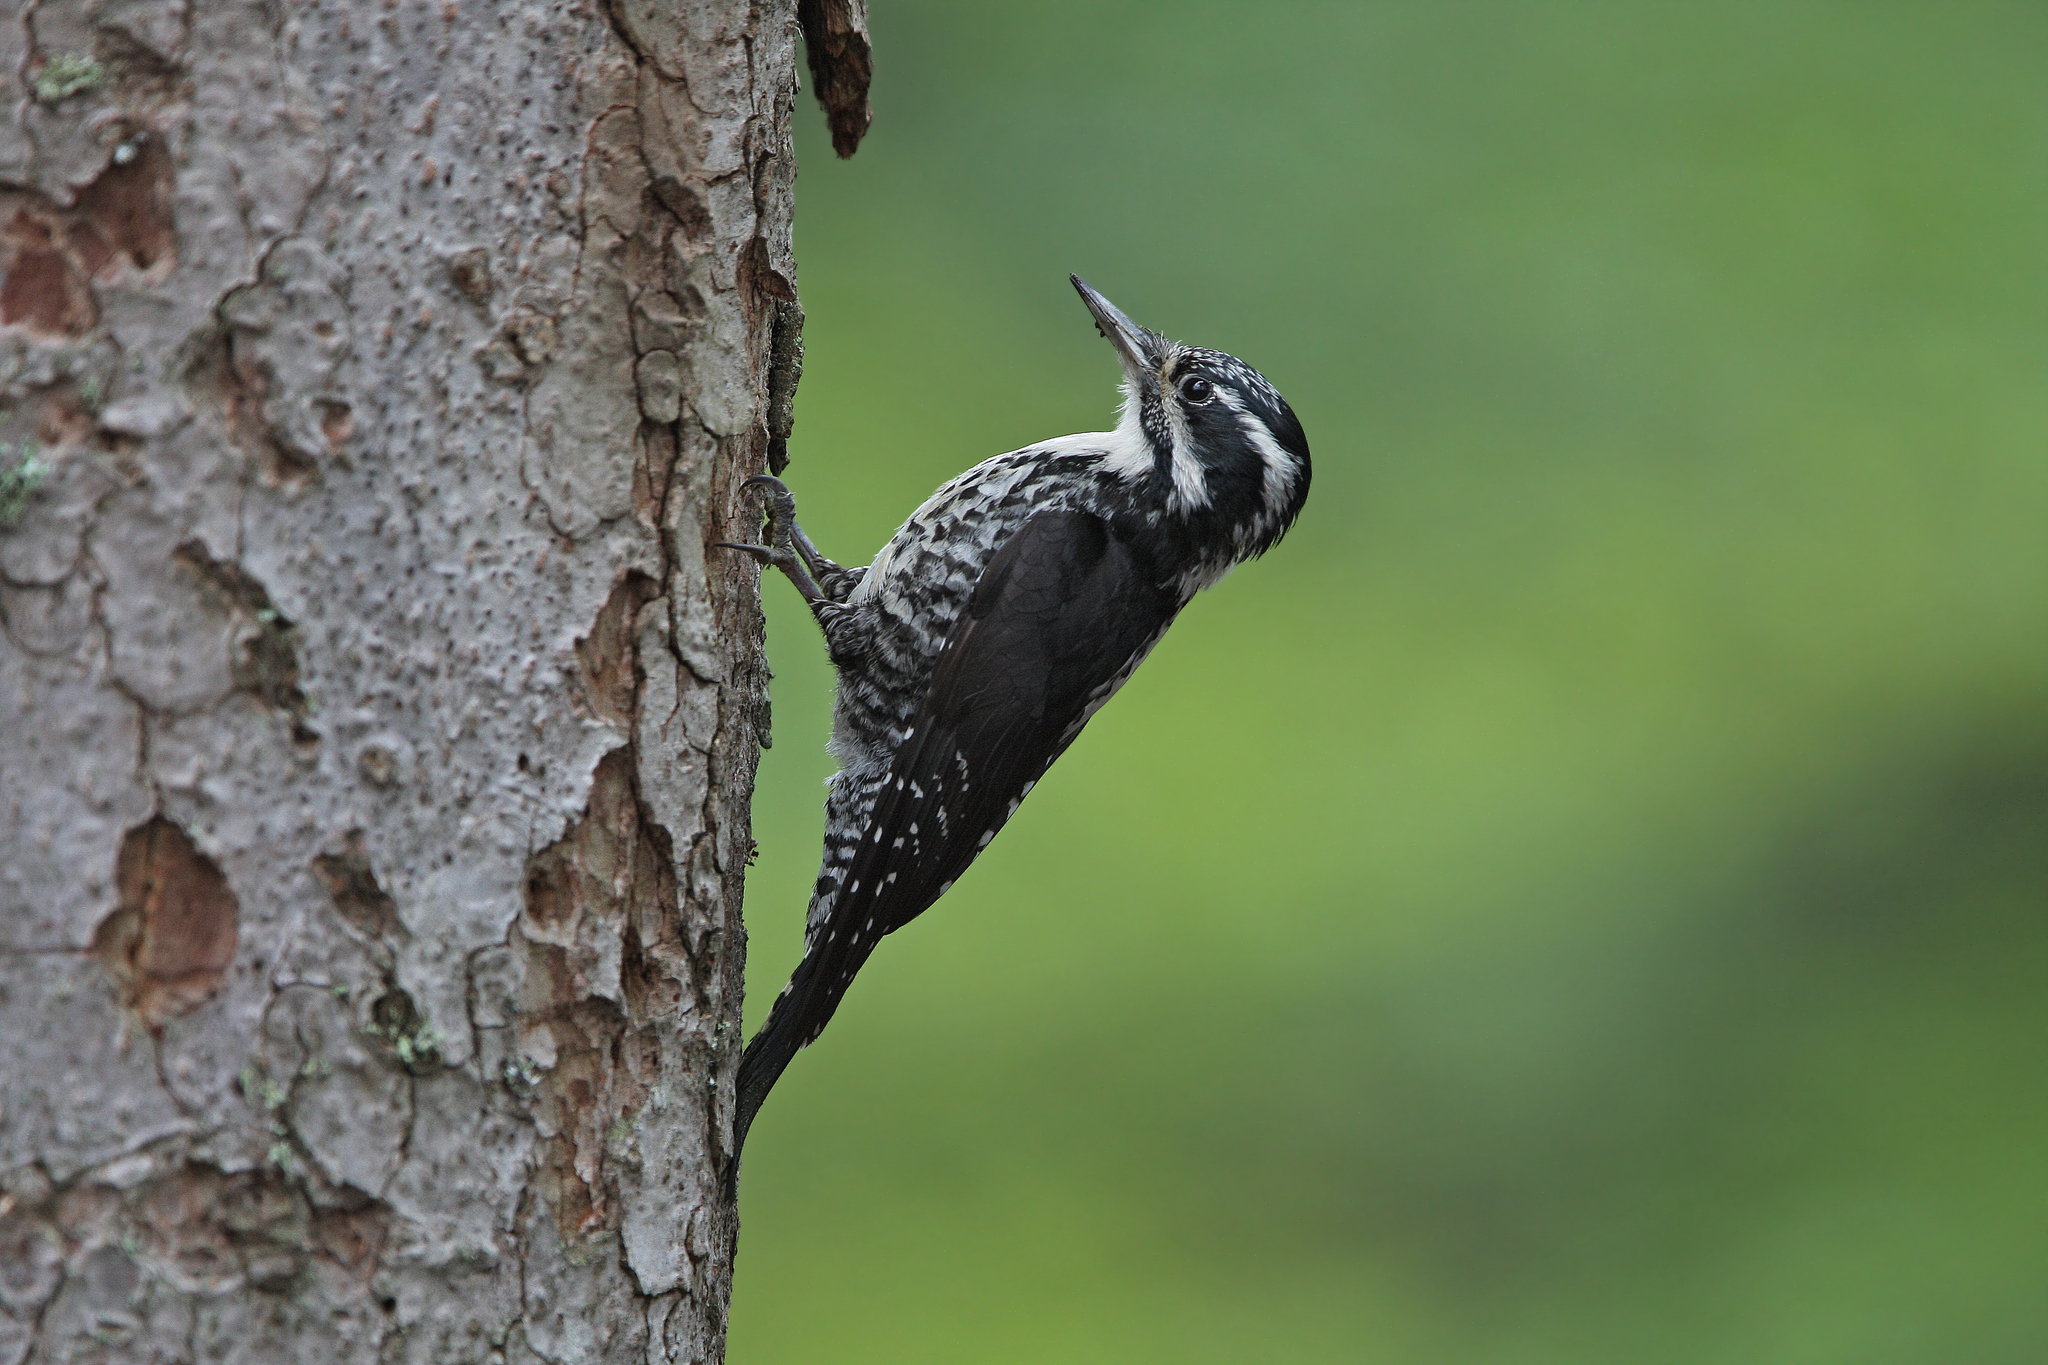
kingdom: Animalia
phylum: Chordata
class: Aves
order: Piciformes
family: Picidae
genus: Picoides
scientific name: Picoides tridactylus
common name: Eurasian three-toed woodpecker
